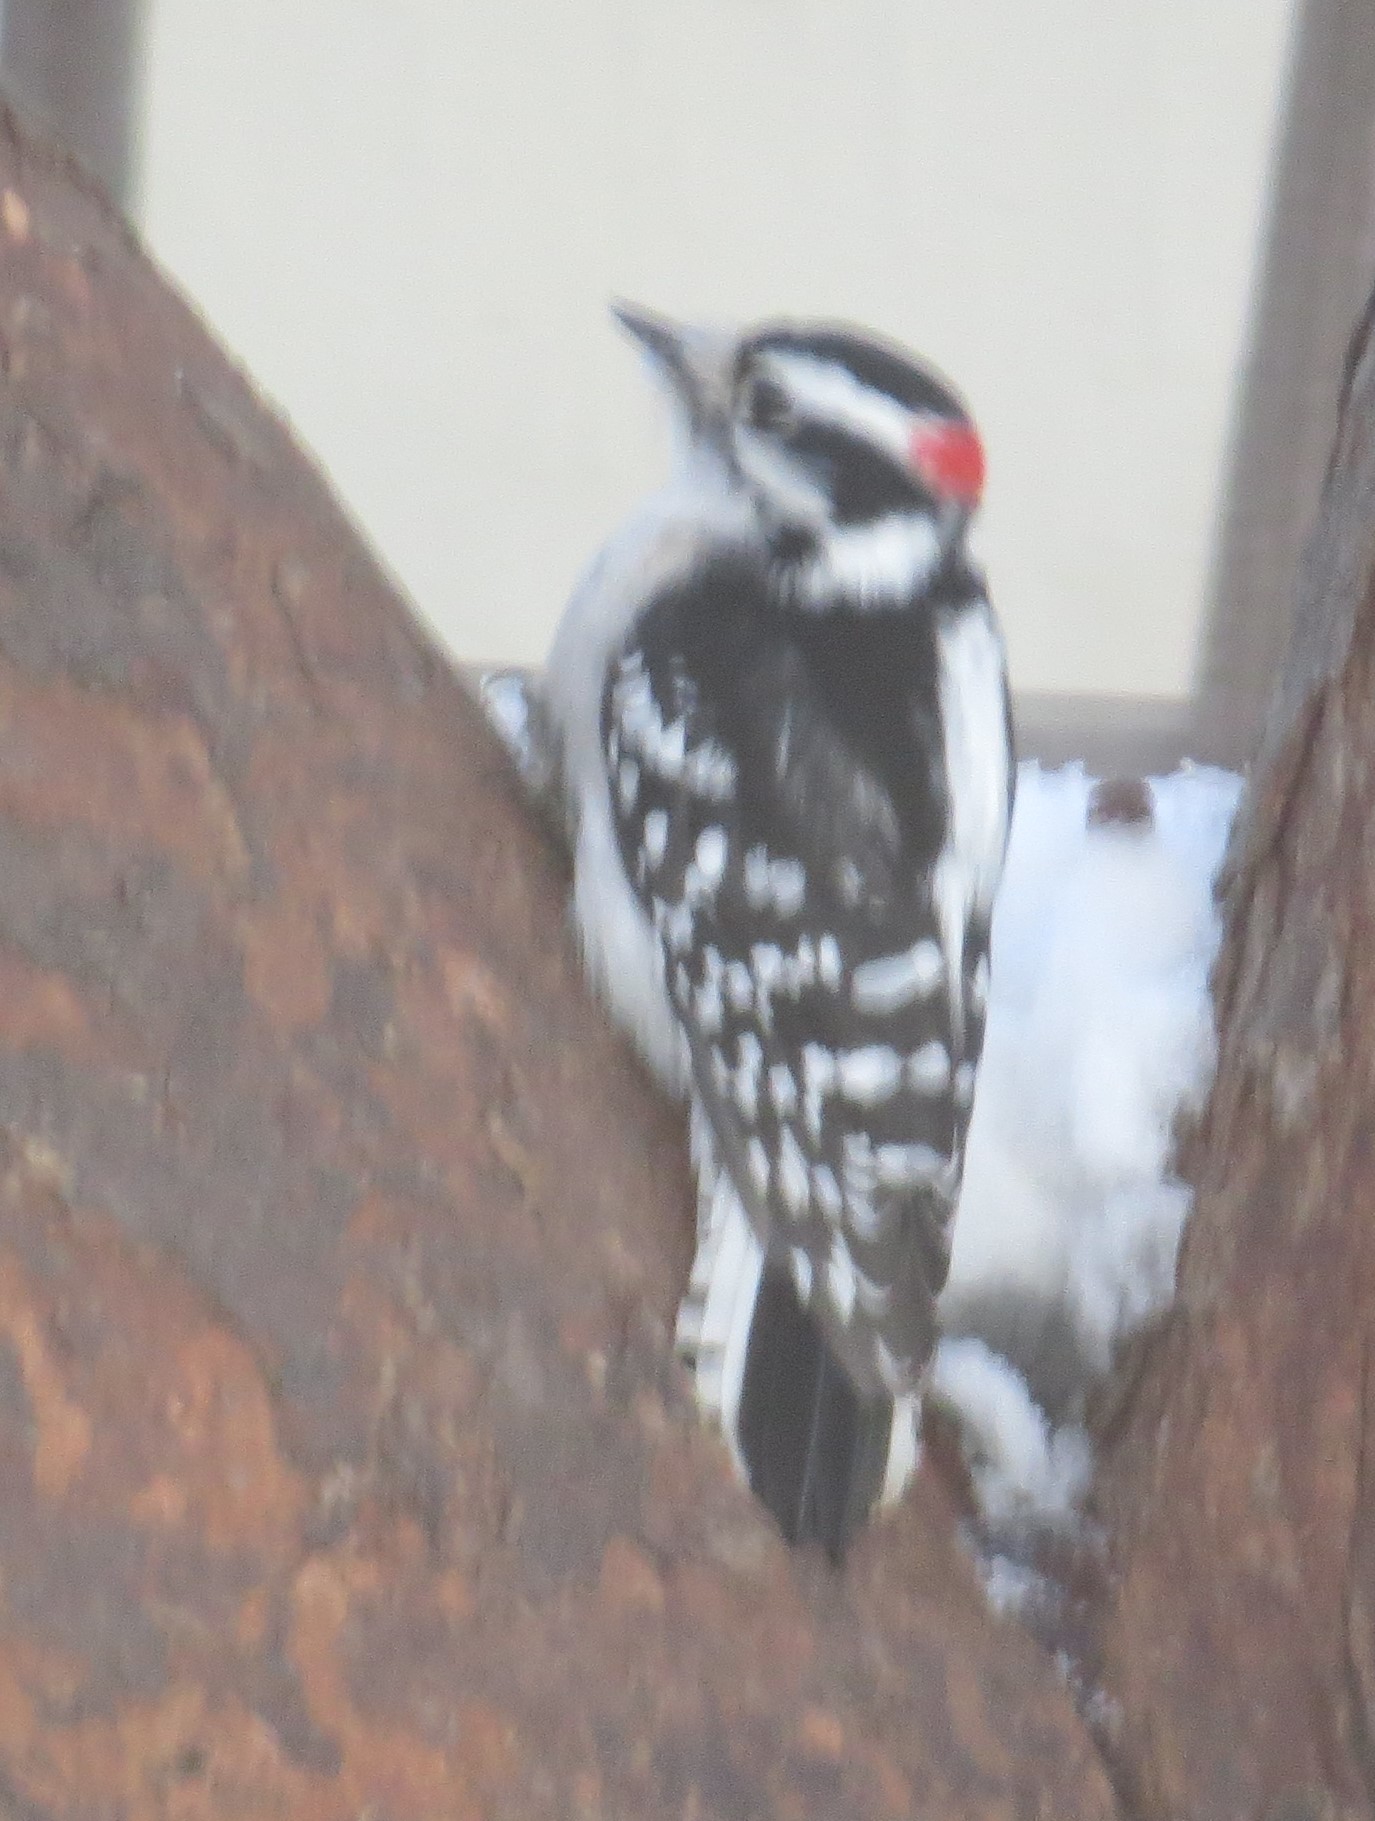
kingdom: Animalia
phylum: Chordata
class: Aves
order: Piciformes
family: Picidae
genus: Dryobates
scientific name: Dryobates pubescens
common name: Downy woodpecker
